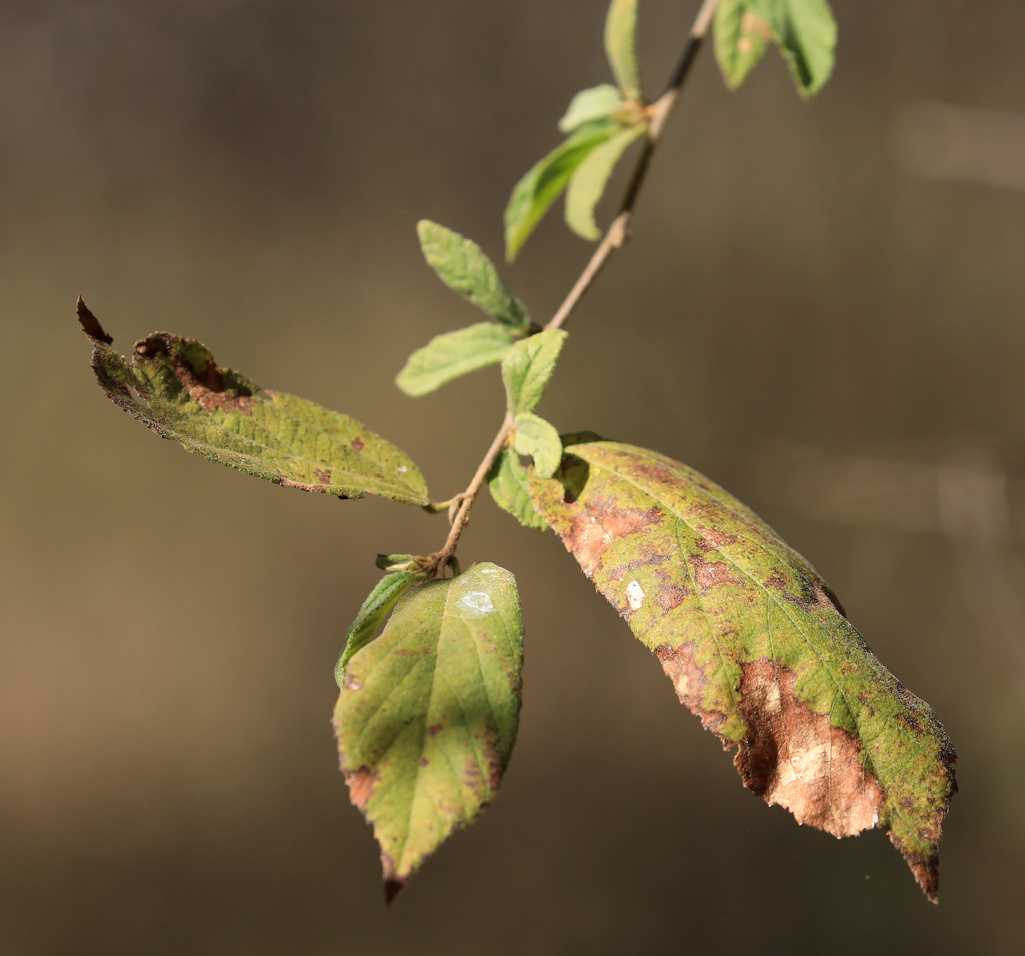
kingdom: Plantae
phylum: Tracheophyta
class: Magnoliopsida
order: Malvales
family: Malvaceae
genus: Grewia
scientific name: Grewia flavescens
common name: Sandpaper raisin
